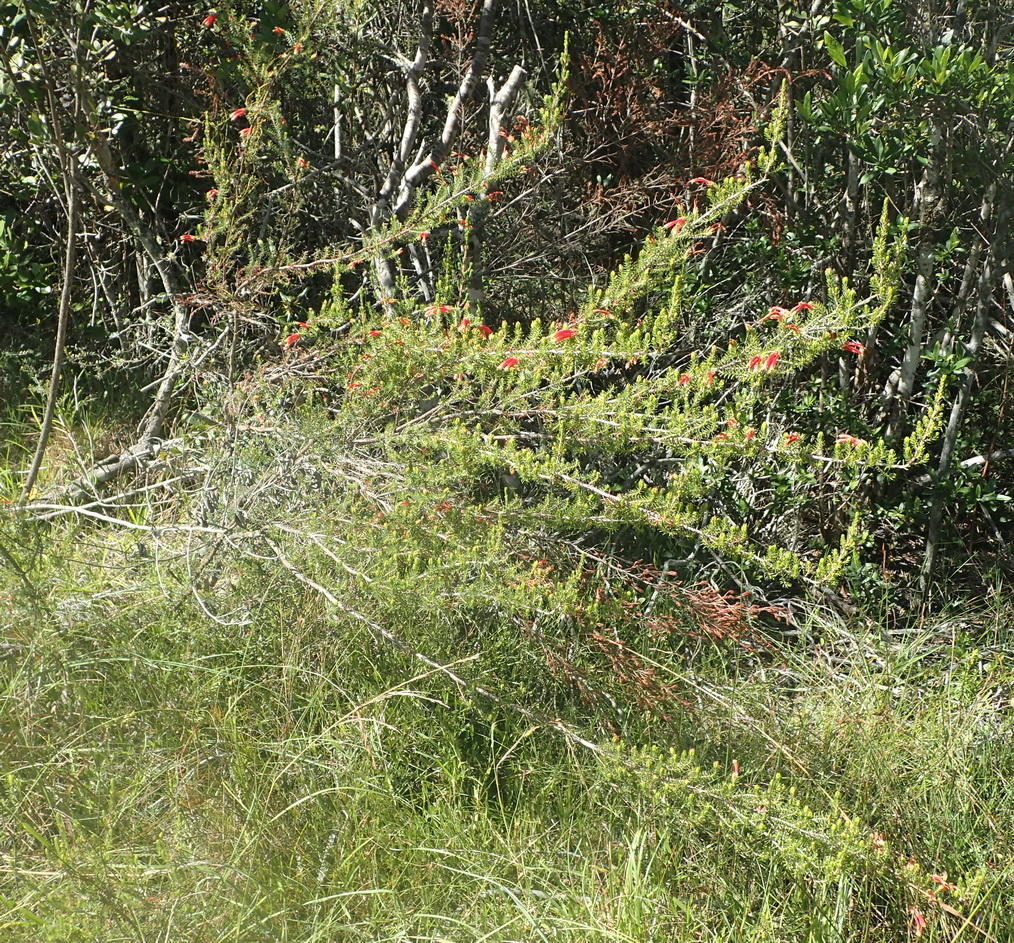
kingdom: Plantae
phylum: Tracheophyta
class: Magnoliopsida
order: Ericales
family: Ericaceae
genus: Erica
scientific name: Erica discolor
